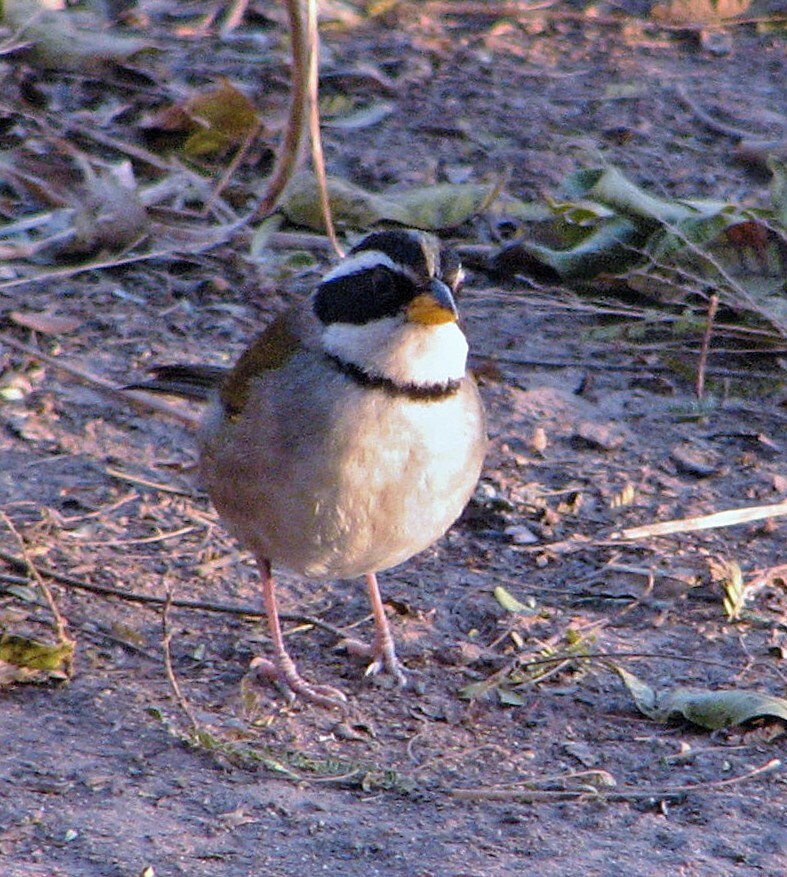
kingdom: Animalia
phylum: Chordata
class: Aves
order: Passeriformes
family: Passerellidae
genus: Arremon
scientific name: Arremon dorbignii
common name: Moss-backed sparrow
